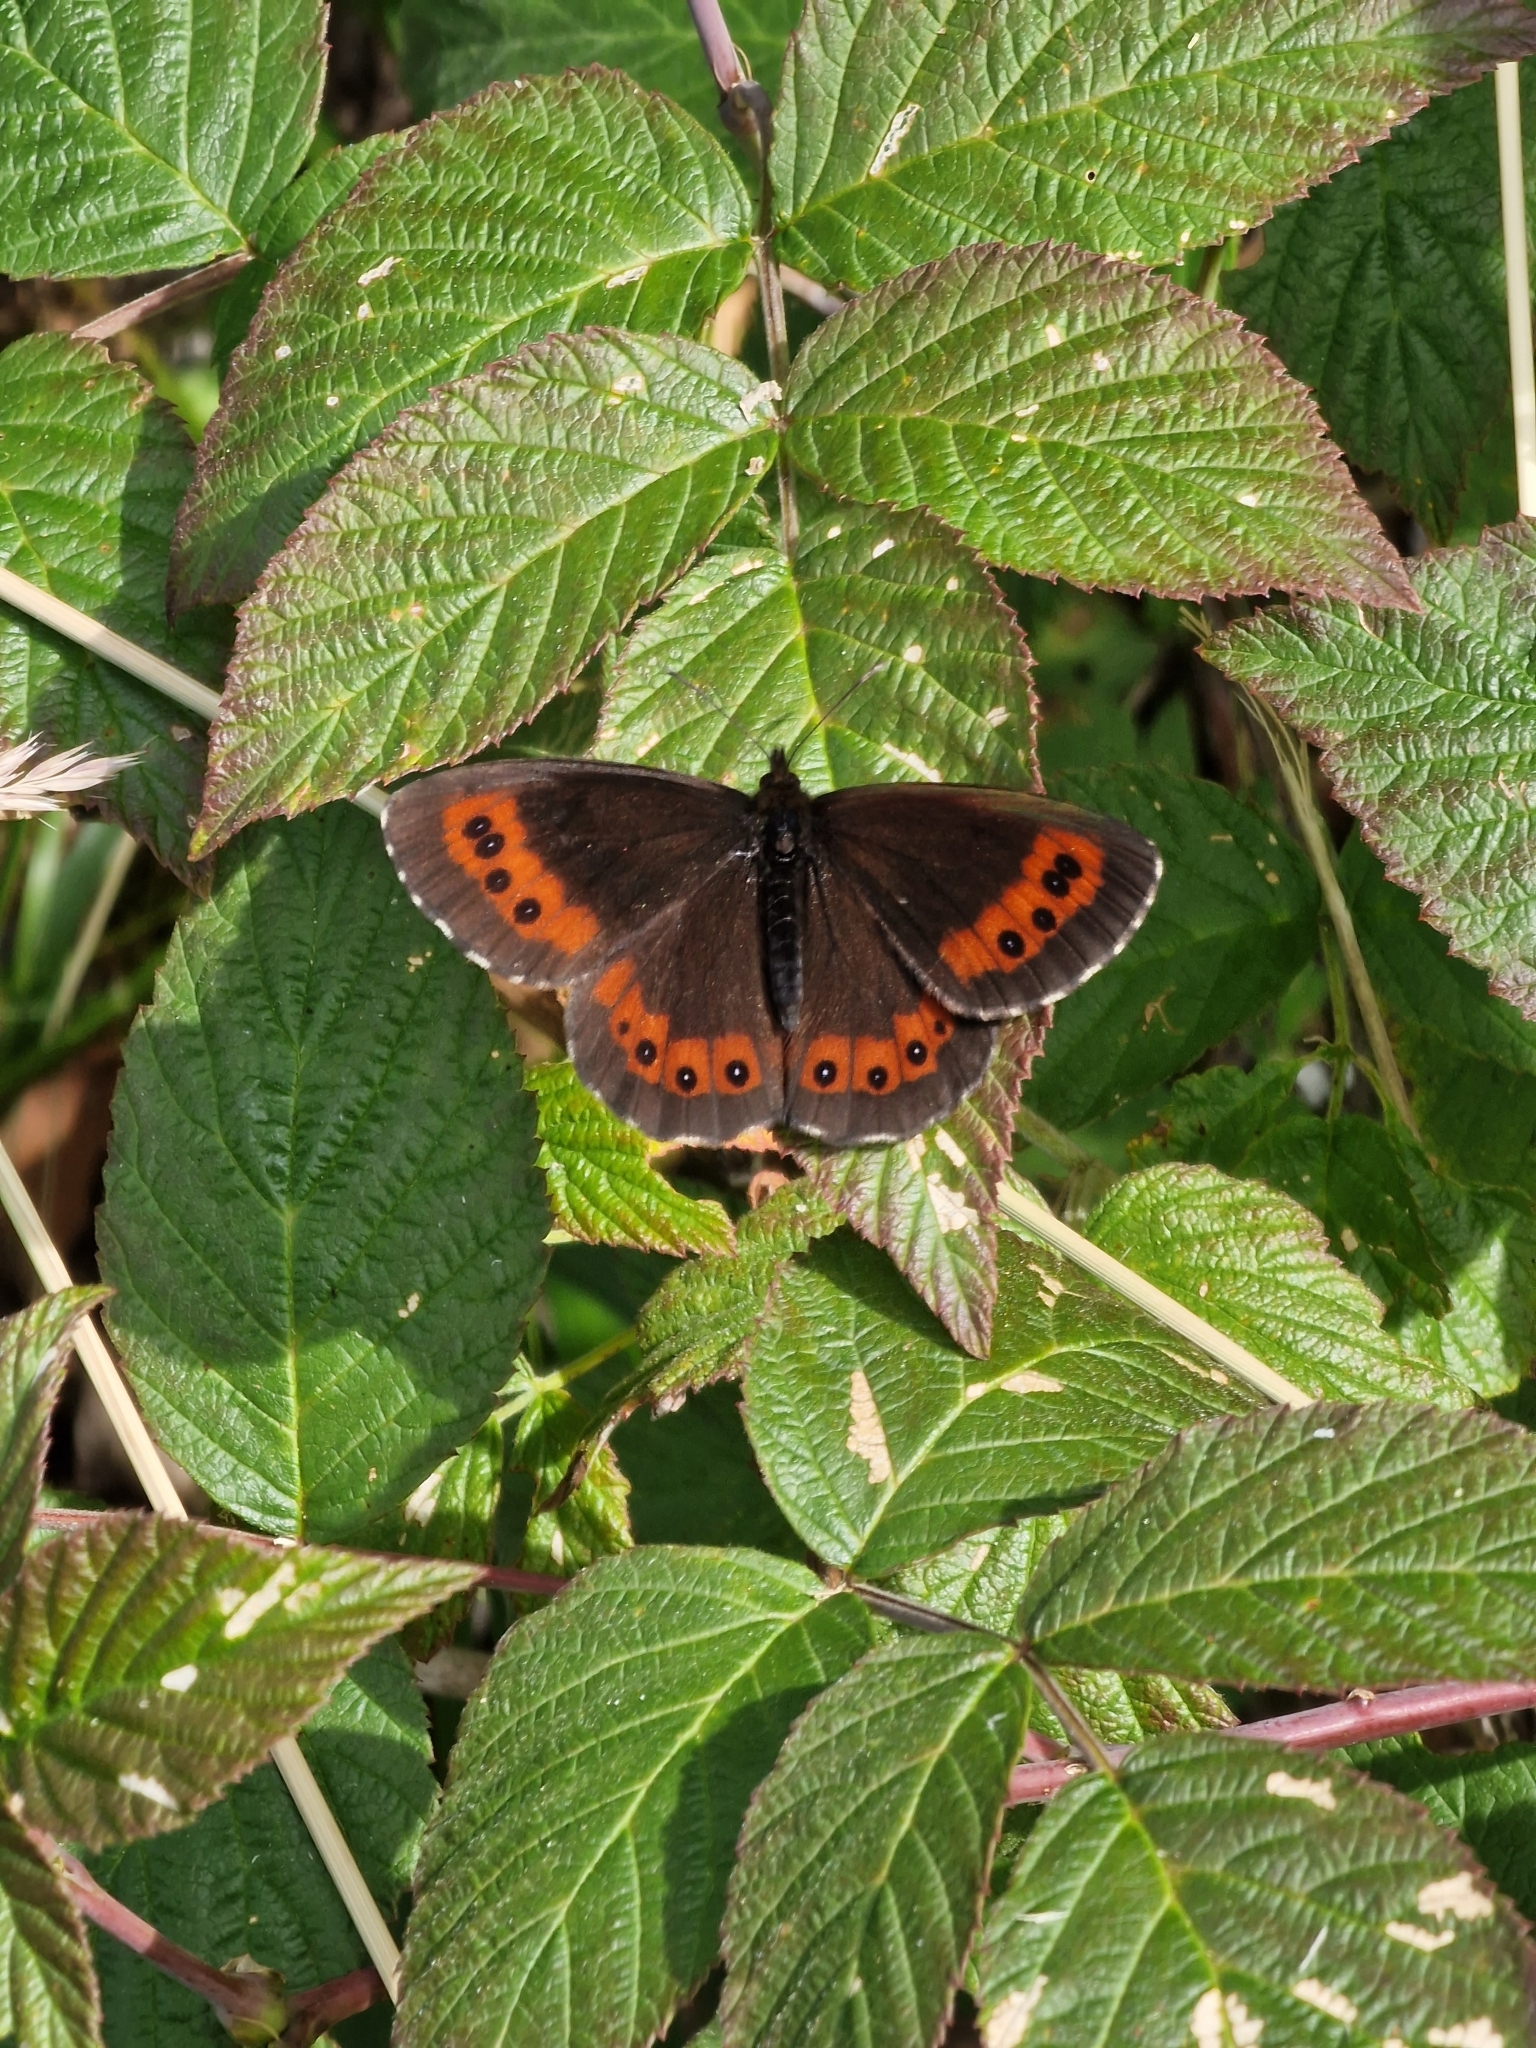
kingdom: Animalia
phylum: Arthropoda
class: Insecta
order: Lepidoptera
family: Nymphalidae
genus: Erebia
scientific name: Erebia ligea
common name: Arran brown
